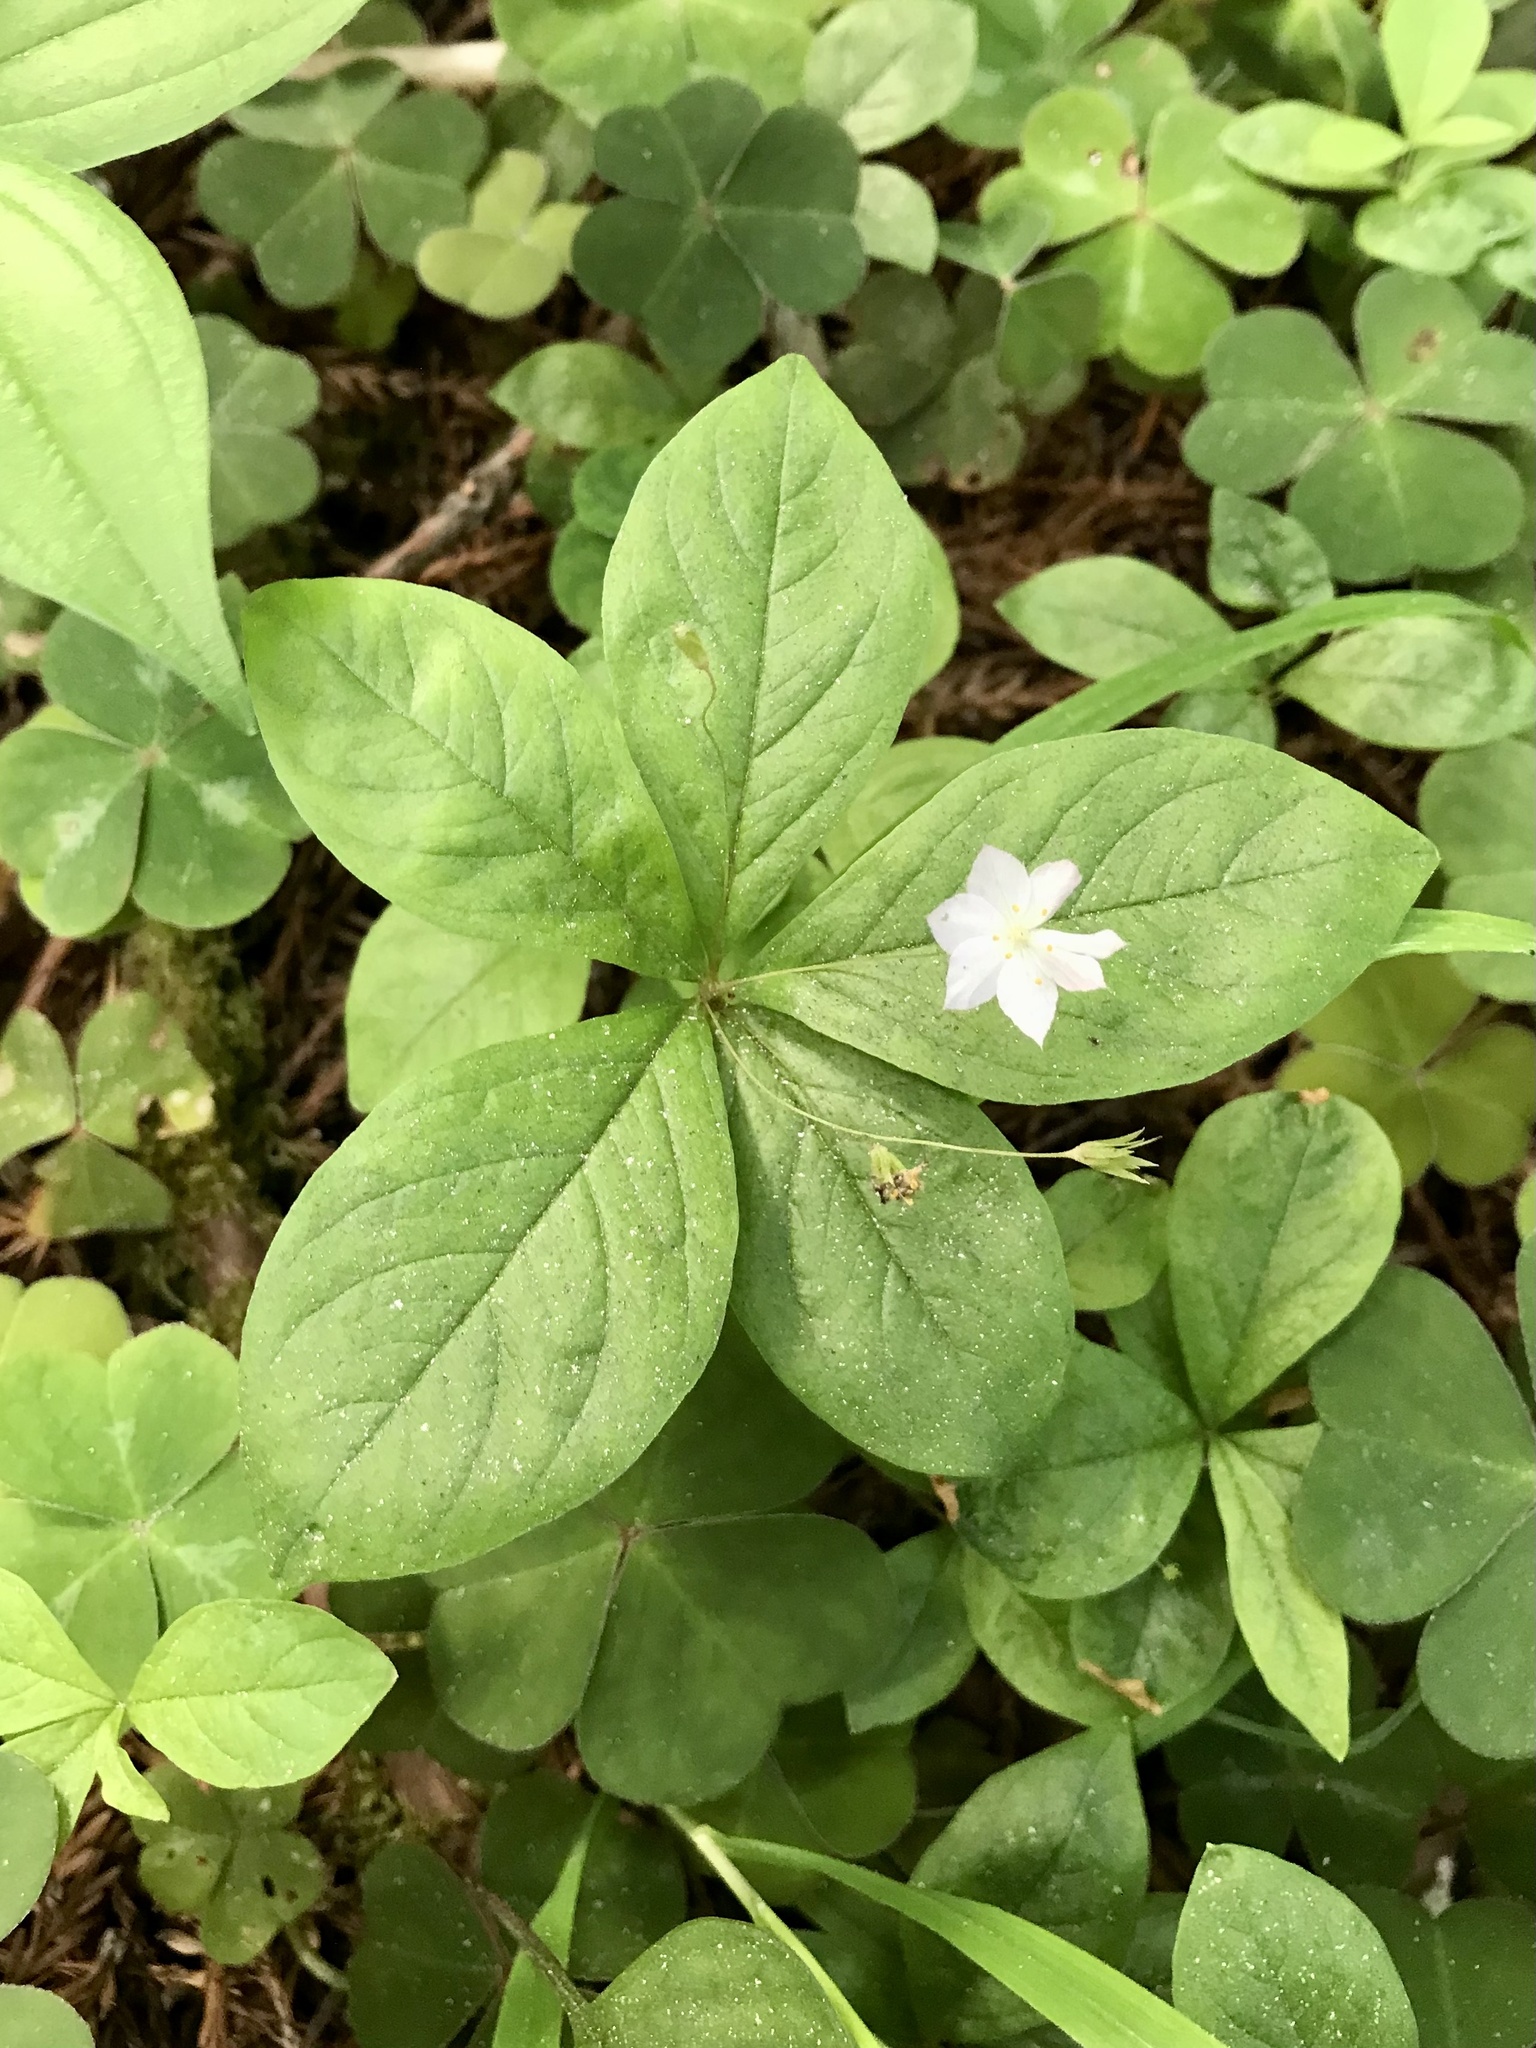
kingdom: Plantae
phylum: Tracheophyta
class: Magnoliopsida
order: Ericales
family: Primulaceae
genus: Lysimachia
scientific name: Lysimachia latifolia
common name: Pacific starflower
